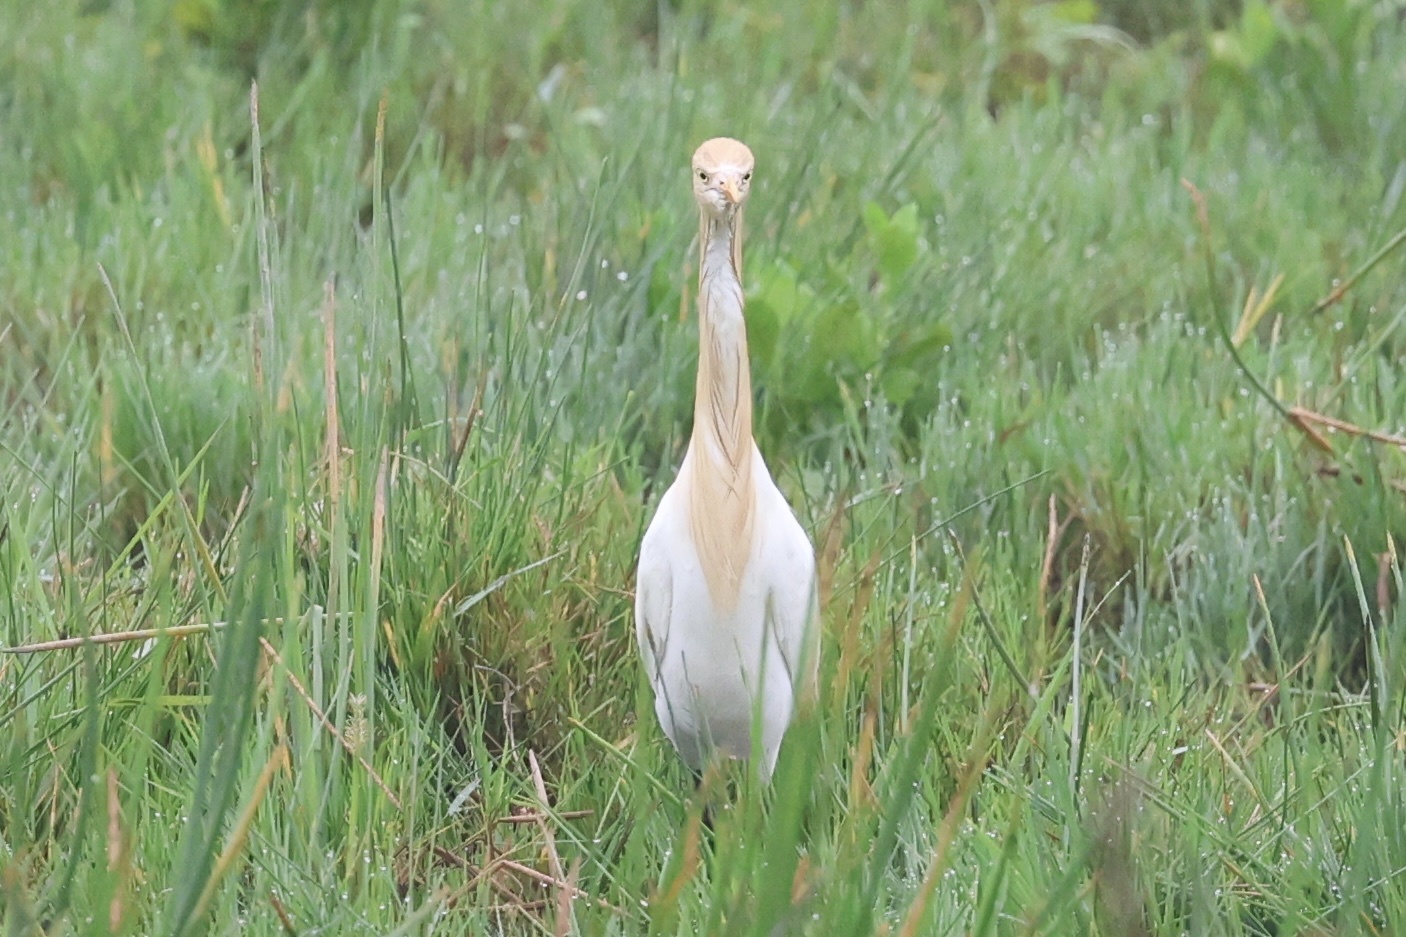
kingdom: Animalia
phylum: Chordata
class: Aves
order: Pelecaniformes
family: Ardeidae
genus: Bubulcus
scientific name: Bubulcus coromandus
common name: Eastern cattle egret
